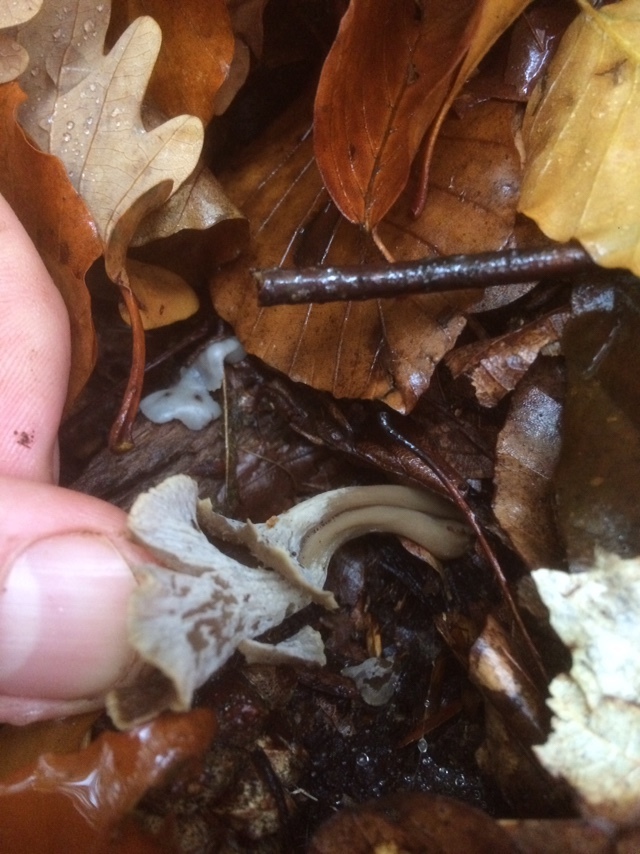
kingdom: Fungi
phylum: Basidiomycota
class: Agaricomycetes
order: Cantharellales
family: Hydnaceae
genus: Craterellus
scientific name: Craterellus undulatus
